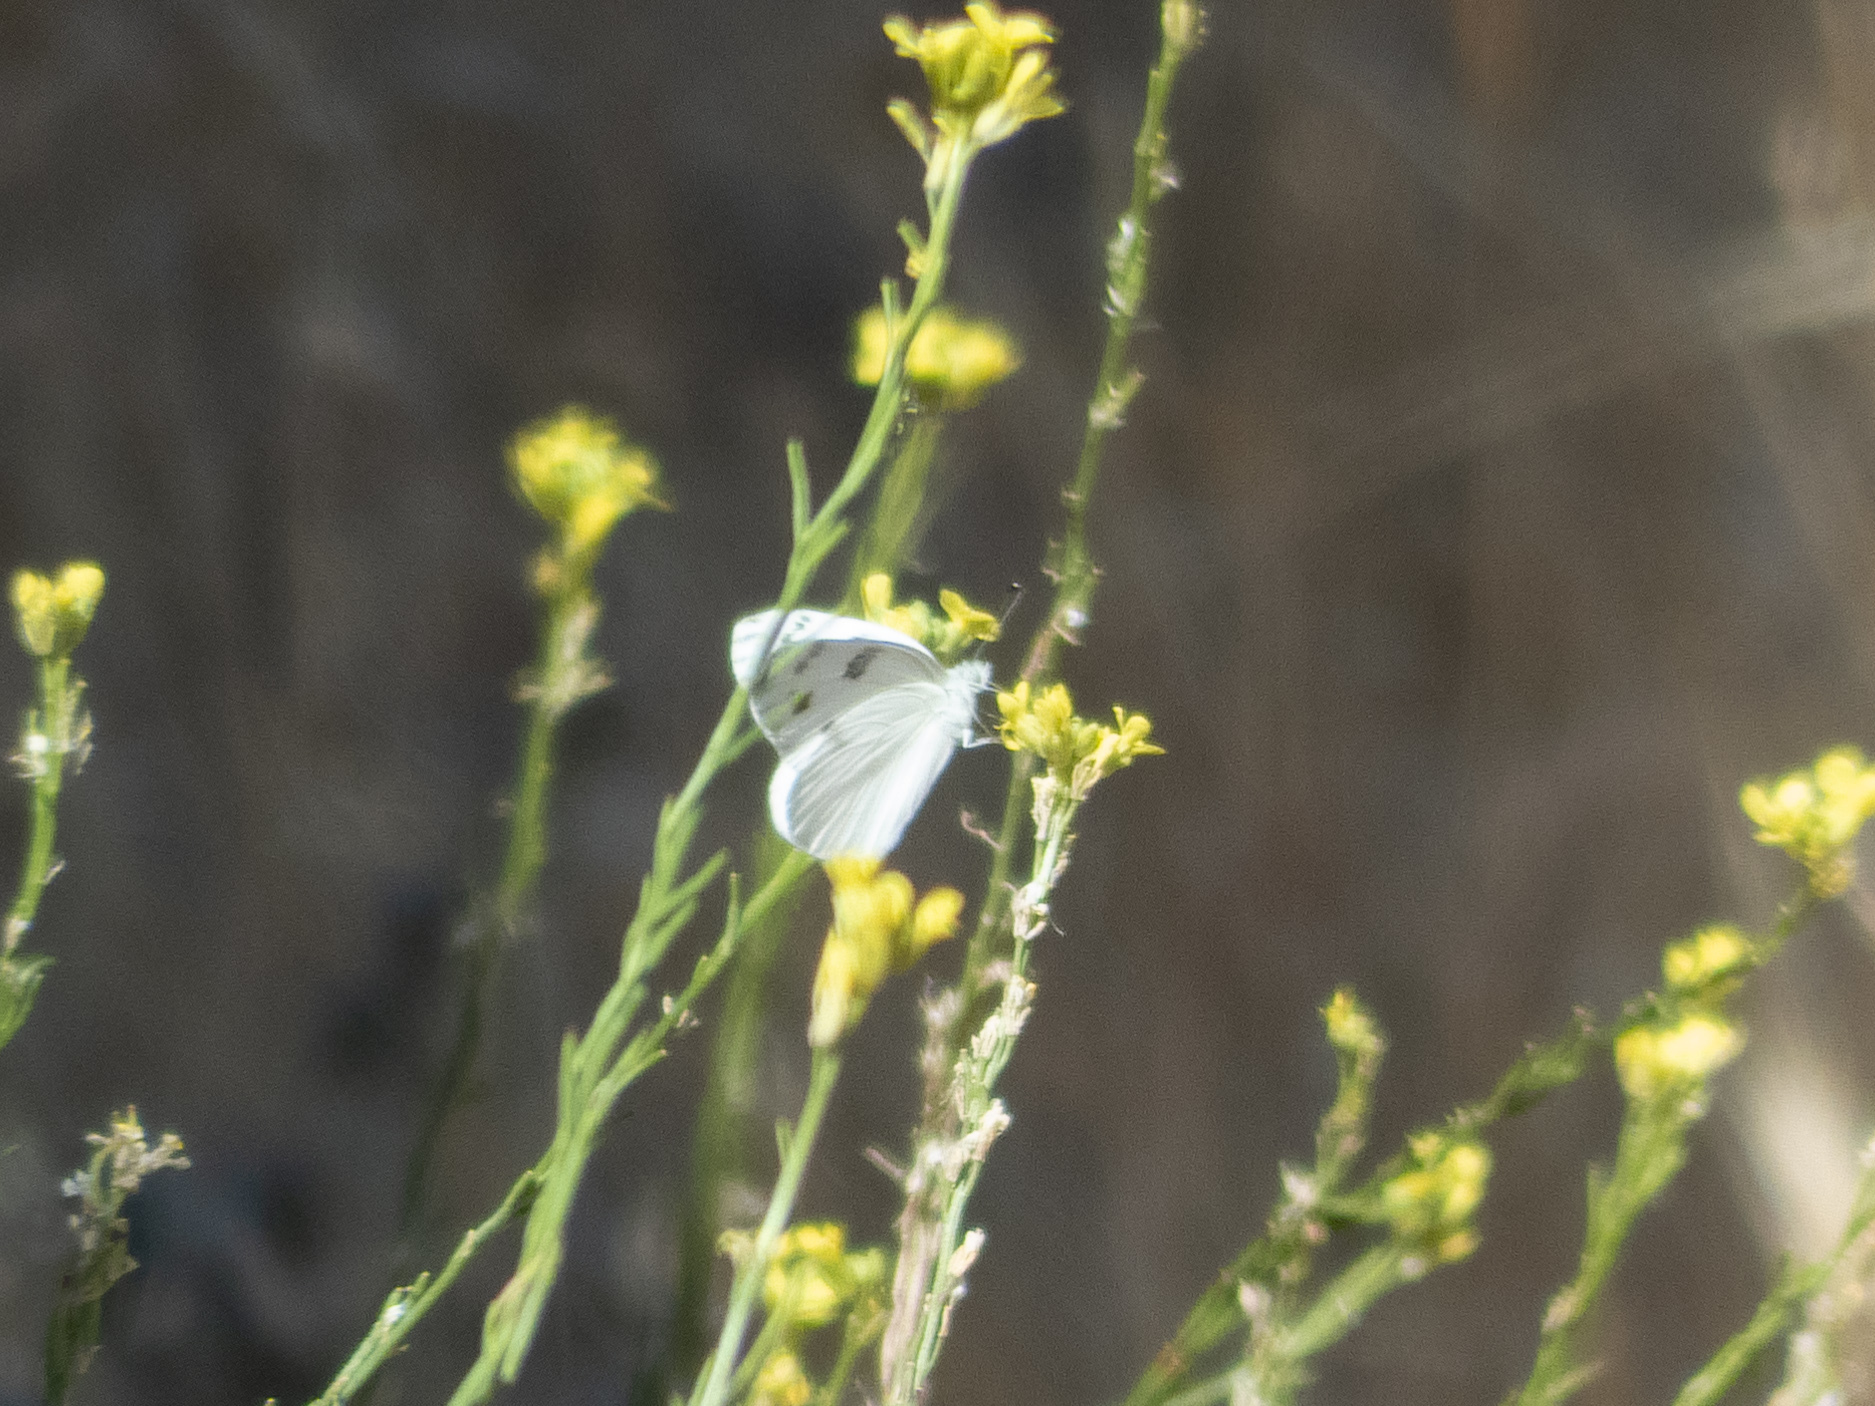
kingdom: Animalia
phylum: Arthropoda
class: Insecta
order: Lepidoptera
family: Pieridae
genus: Pontia
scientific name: Pontia protodice
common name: Checkered white
